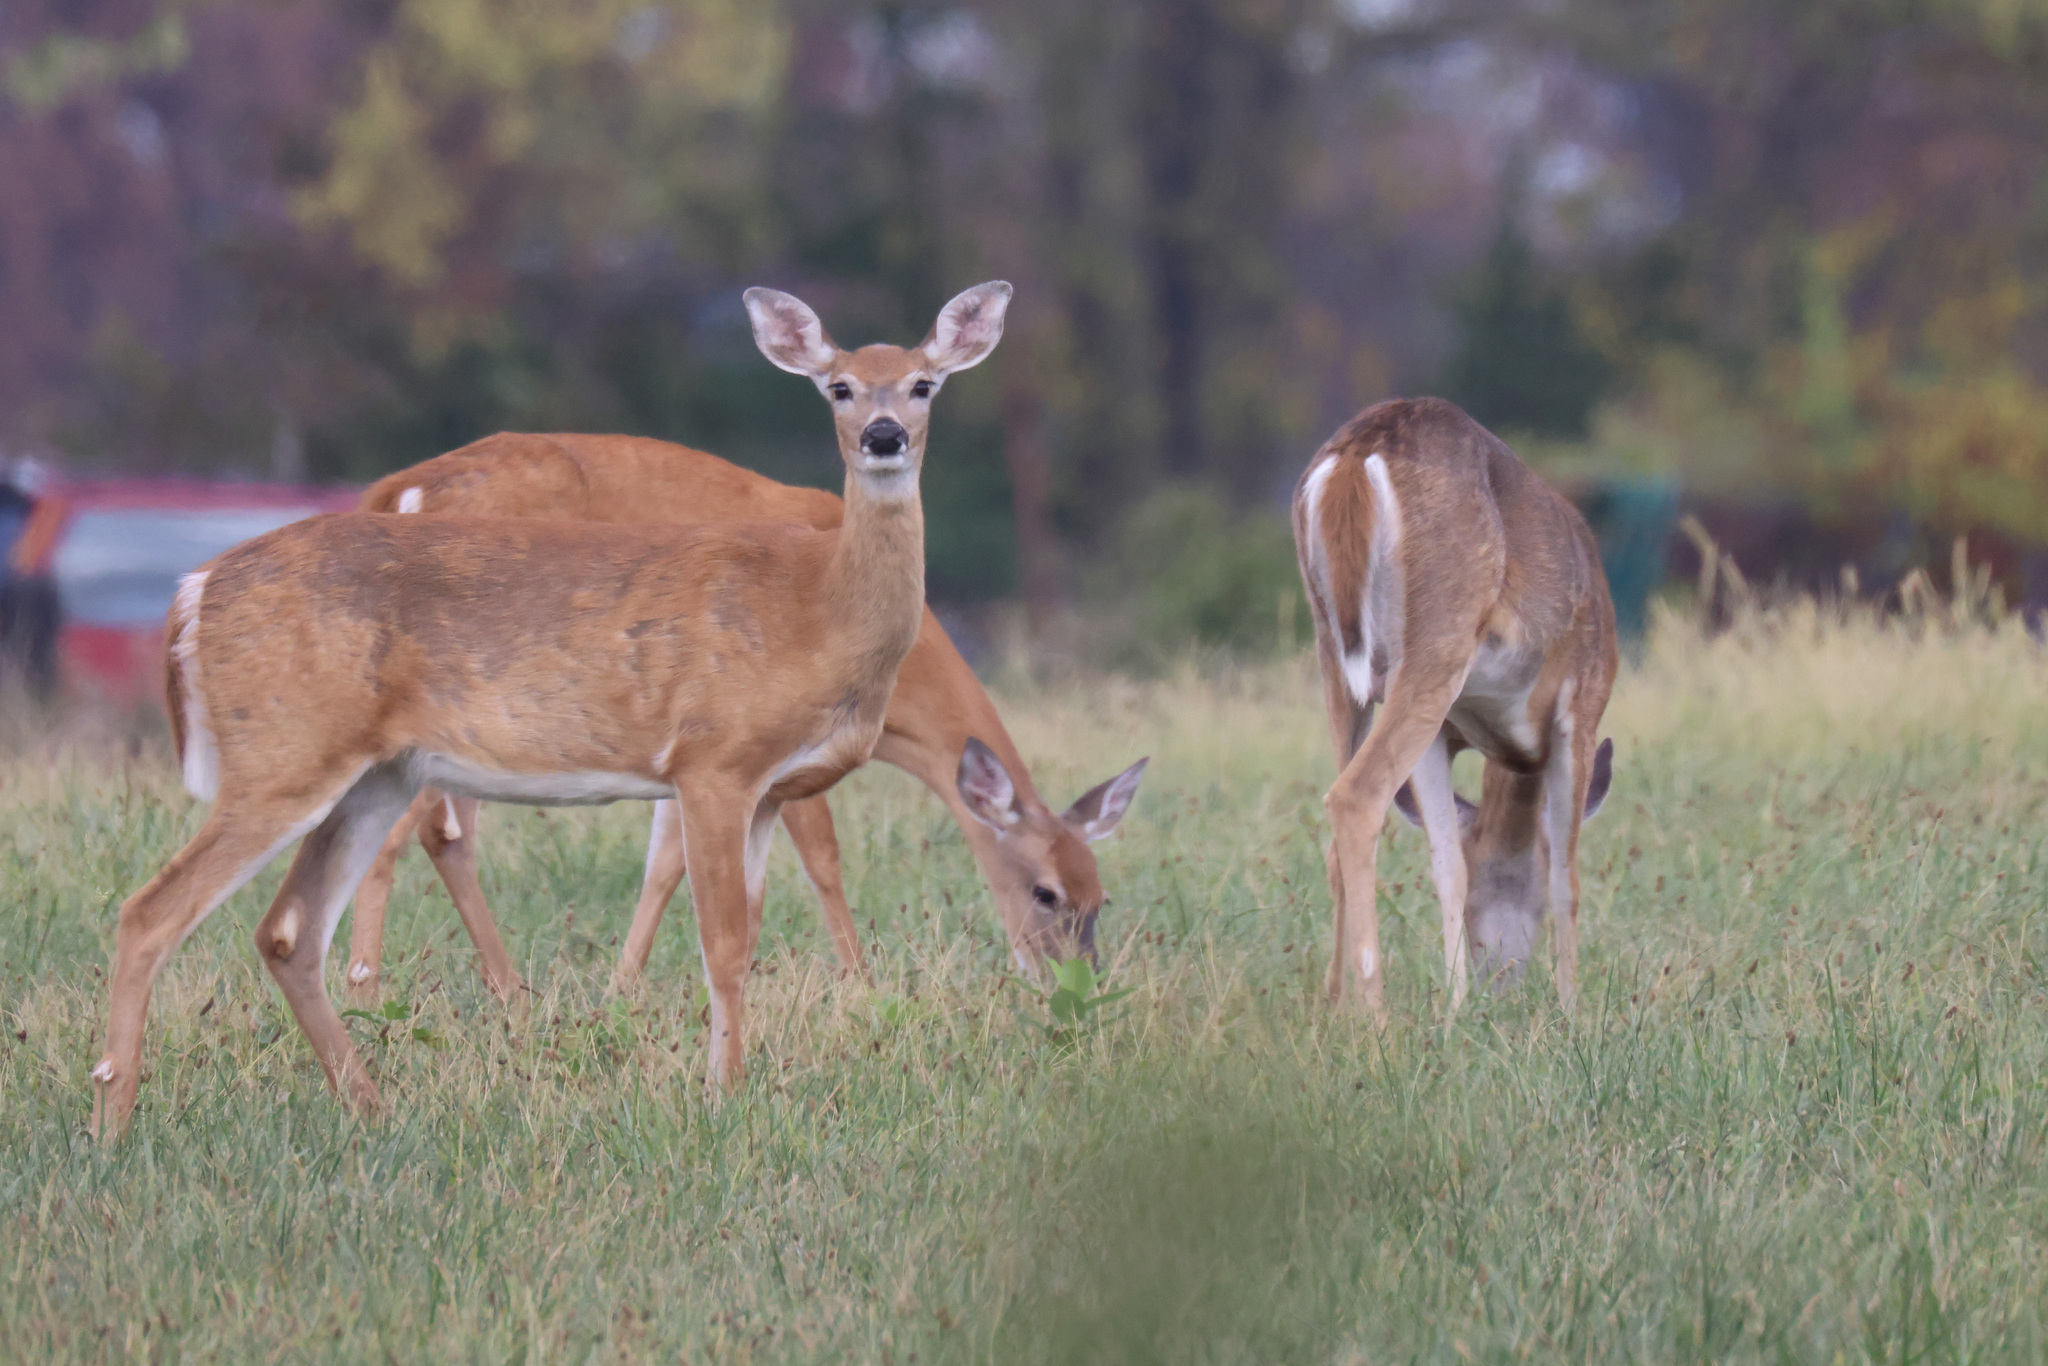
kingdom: Animalia
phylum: Chordata
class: Mammalia
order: Artiodactyla
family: Cervidae
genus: Odocoileus
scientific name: Odocoileus virginianus
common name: White-tailed deer
